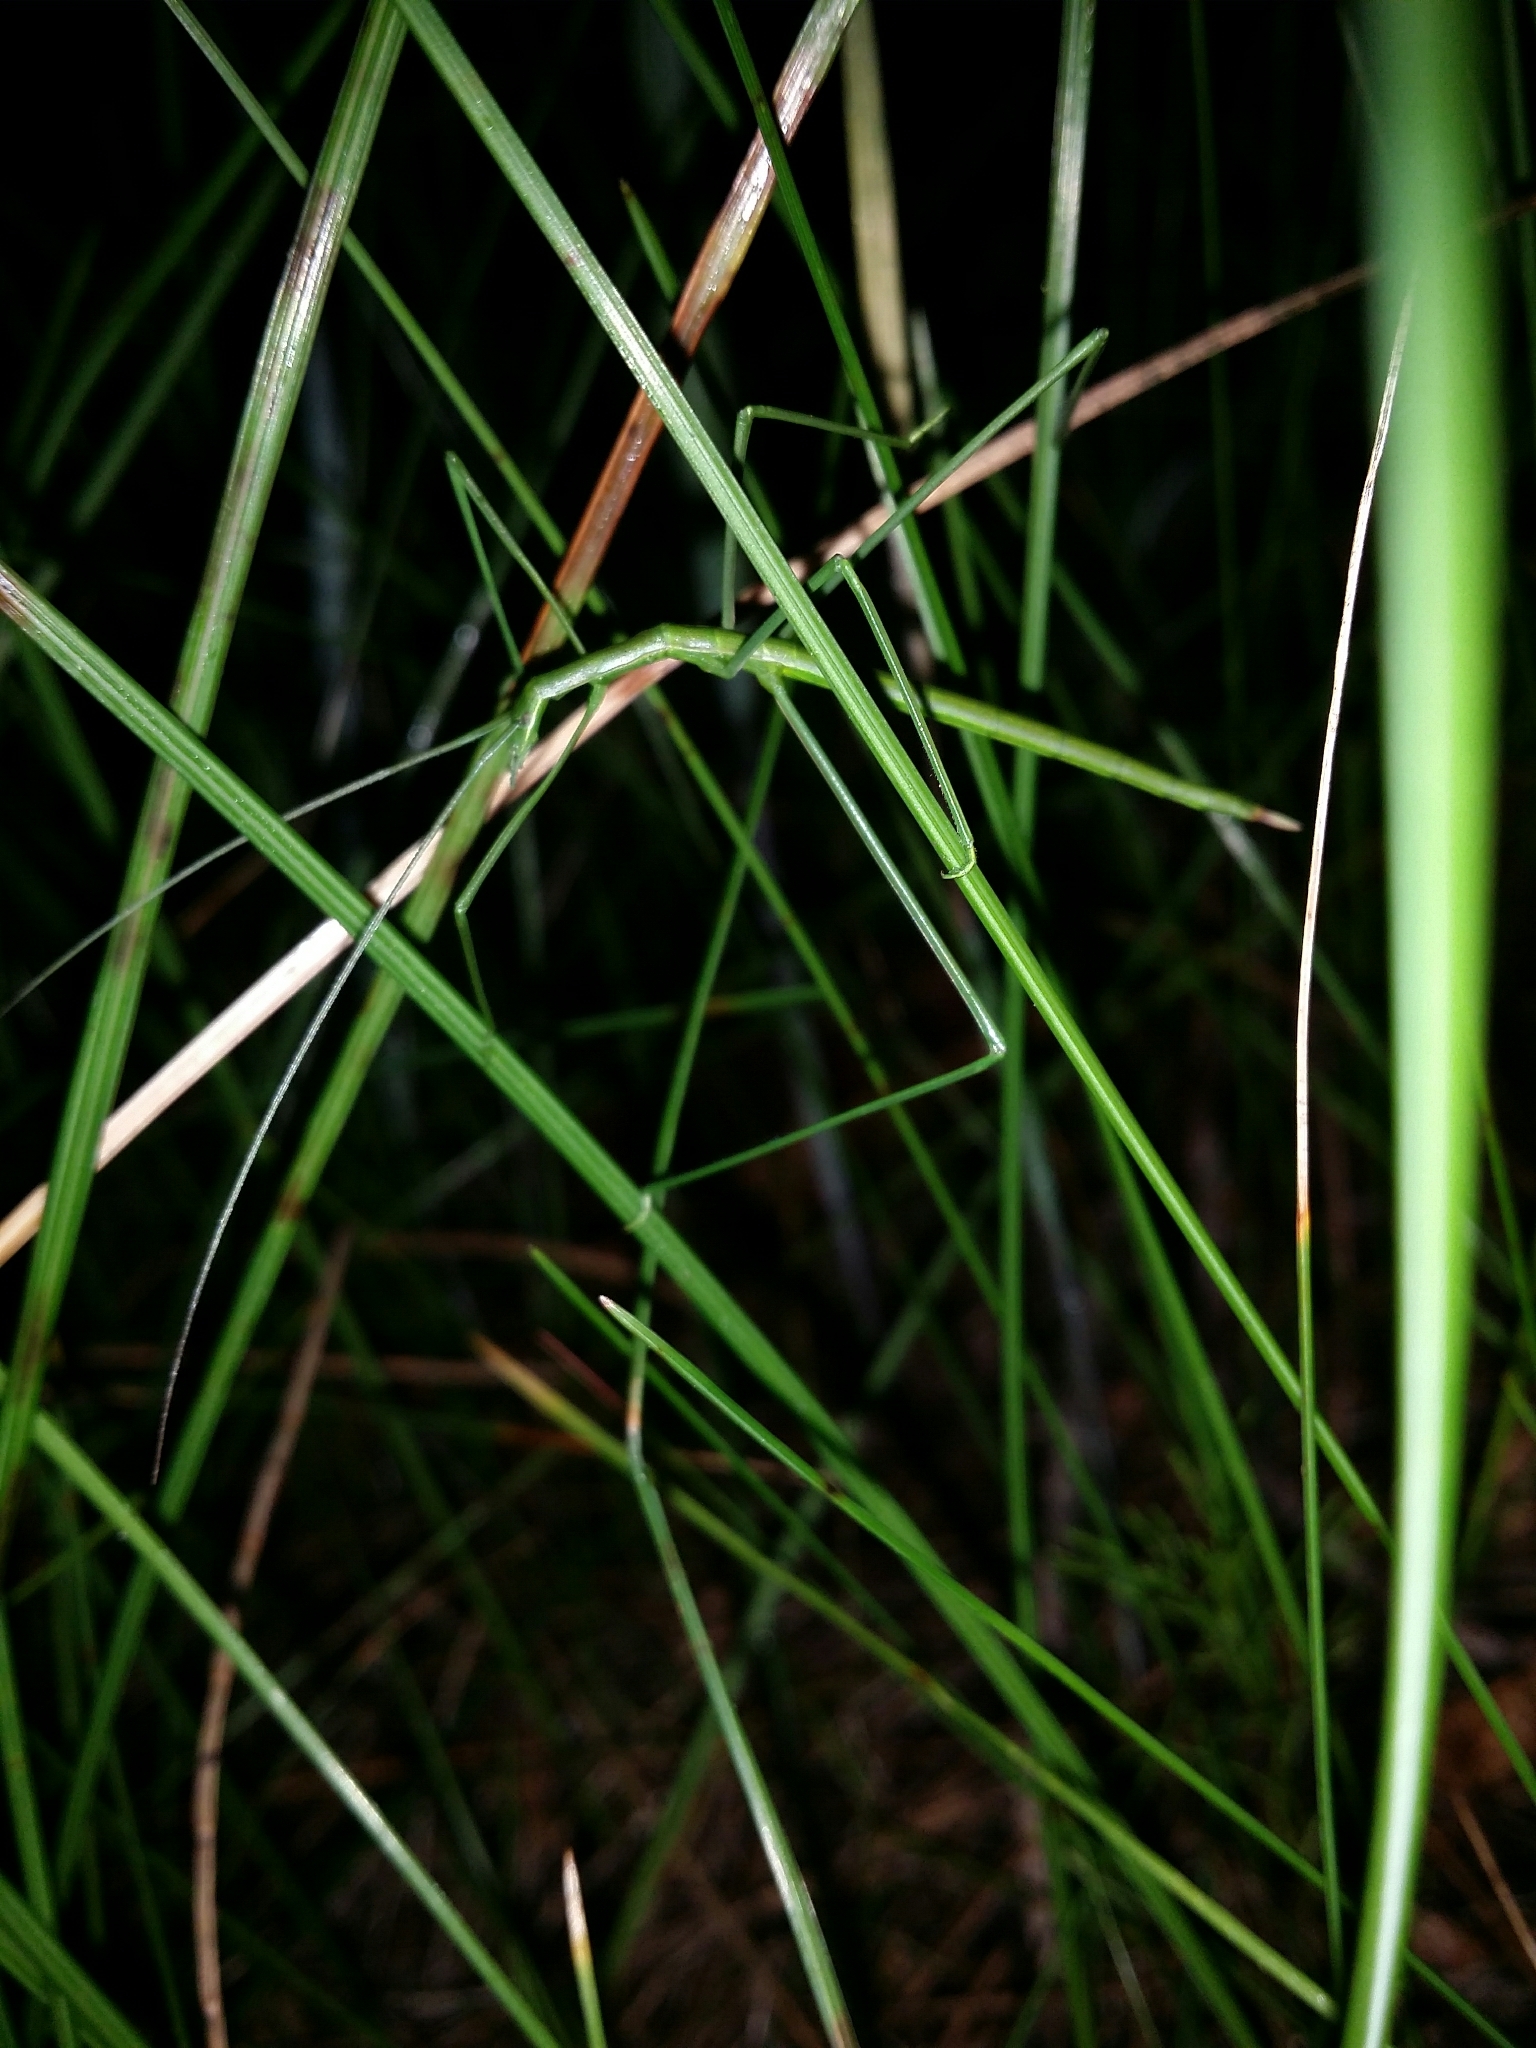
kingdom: Animalia
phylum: Arthropoda
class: Insecta
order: Orthoptera
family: Tettigoniidae
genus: Phasmodes
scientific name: Phasmodes ranatriformis
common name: King's park stick katydid
